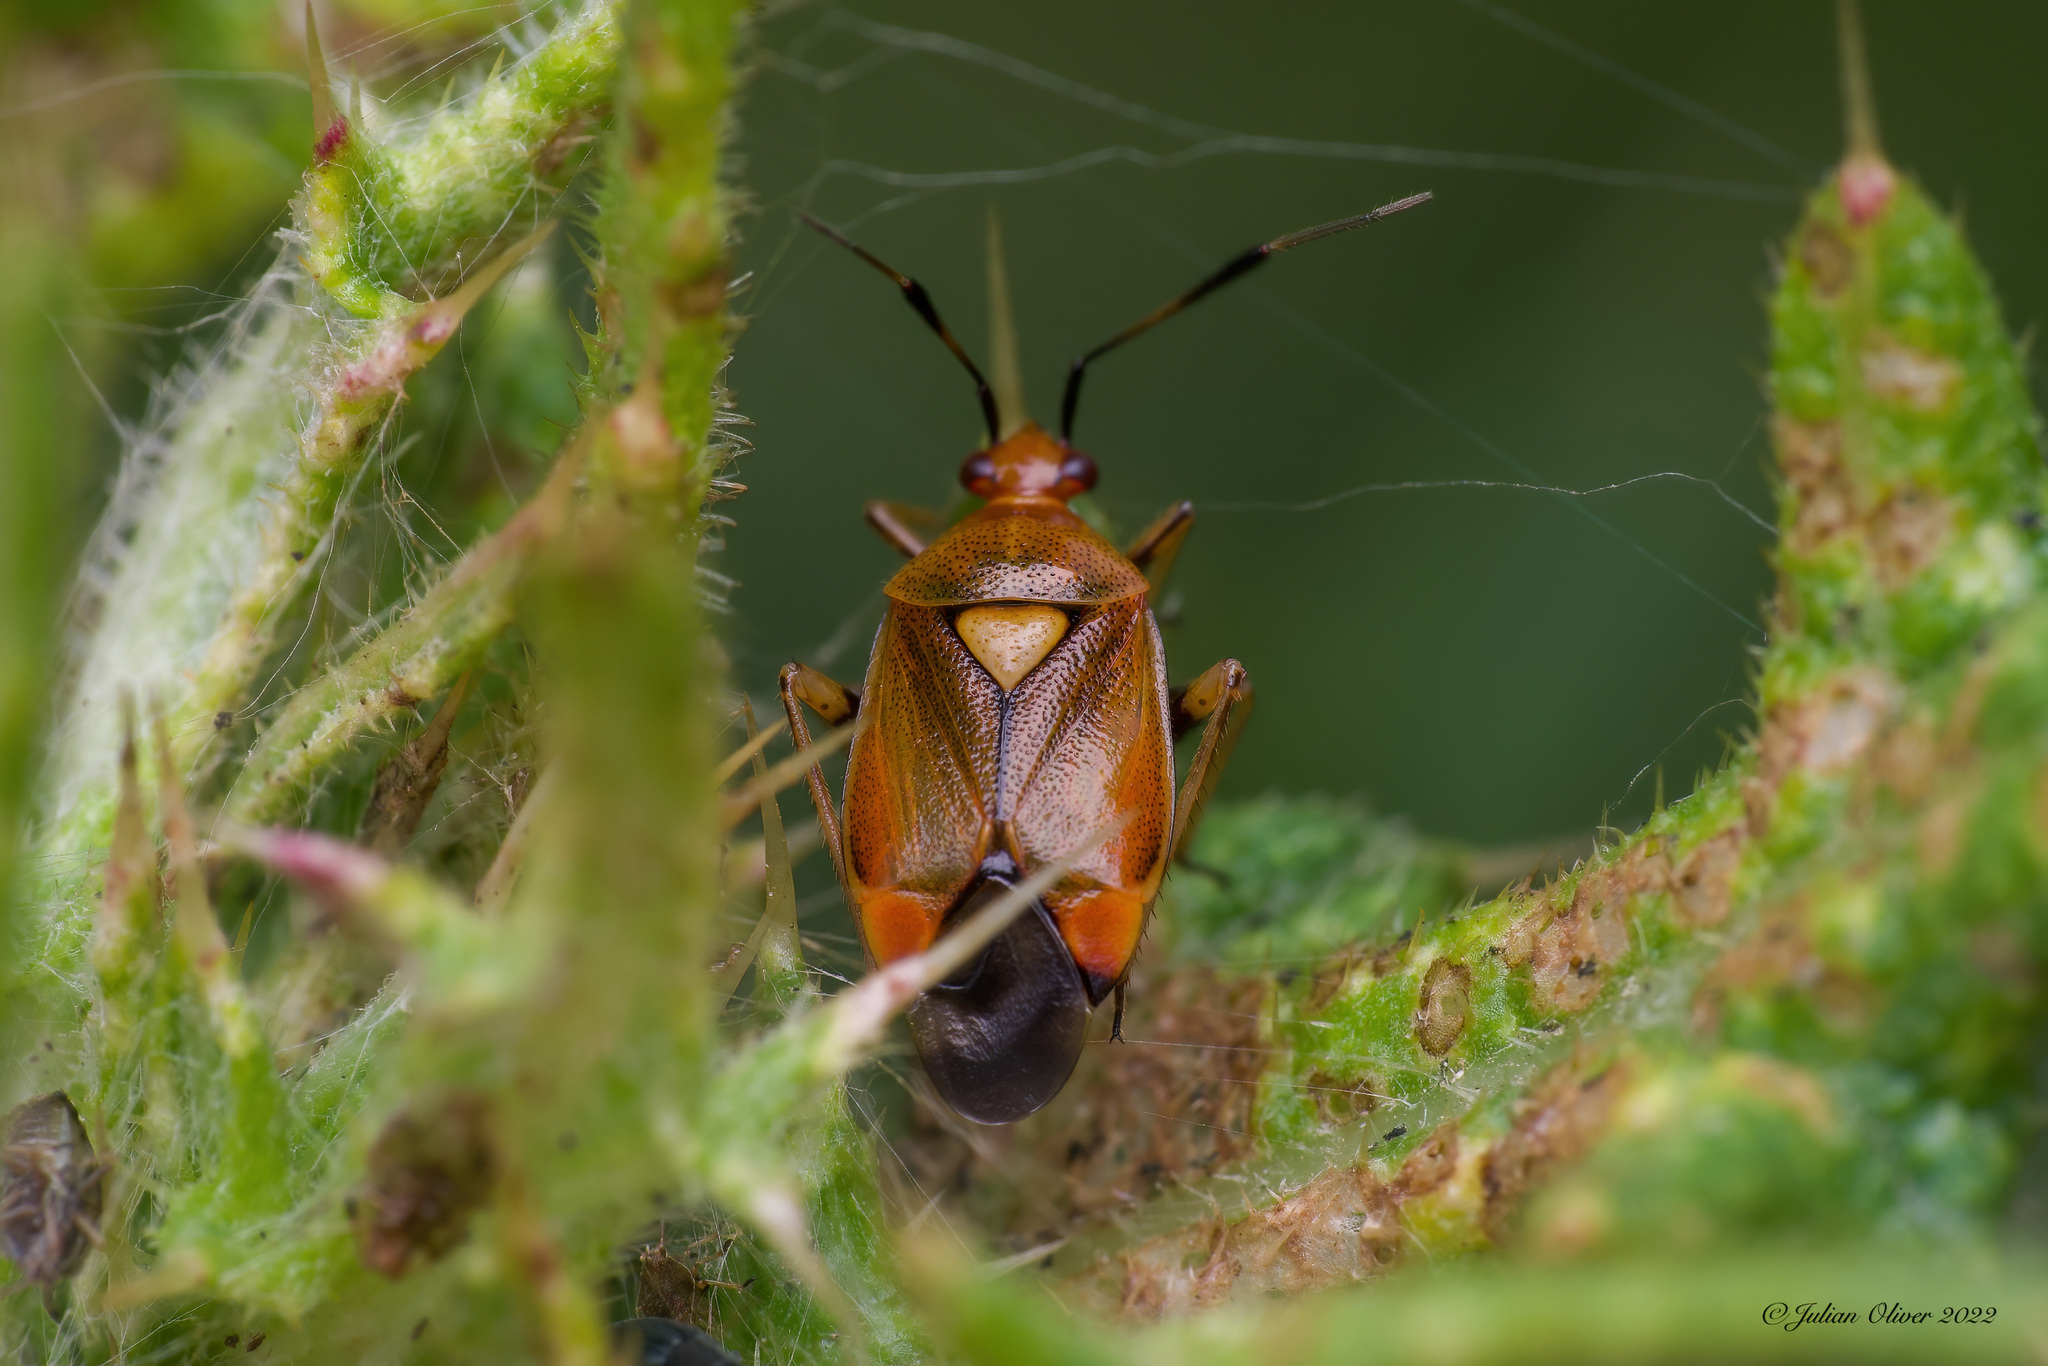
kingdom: Animalia
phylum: Arthropoda
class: Insecta
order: Hemiptera
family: Miridae
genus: Deraeocoris
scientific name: Deraeocoris ruber
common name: Plant bug
